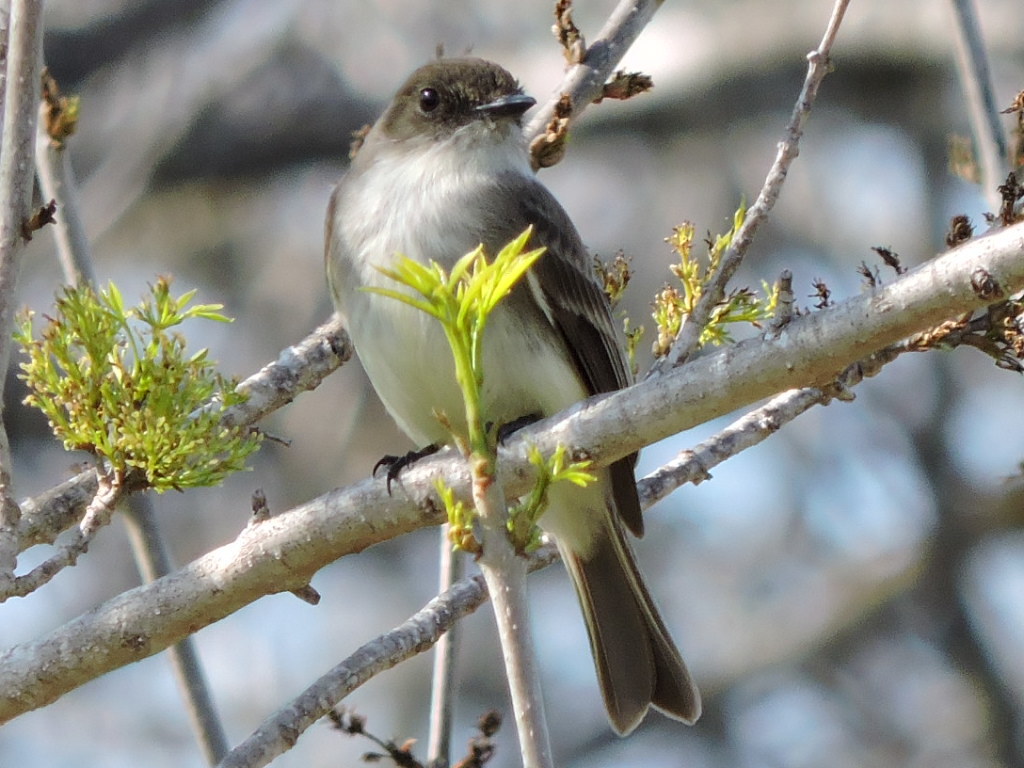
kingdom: Animalia
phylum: Chordata
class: Aves
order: Passeriformes
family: Tyrannidae
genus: Sayornis
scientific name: Sayornis phoebe
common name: Eastern phoebe
